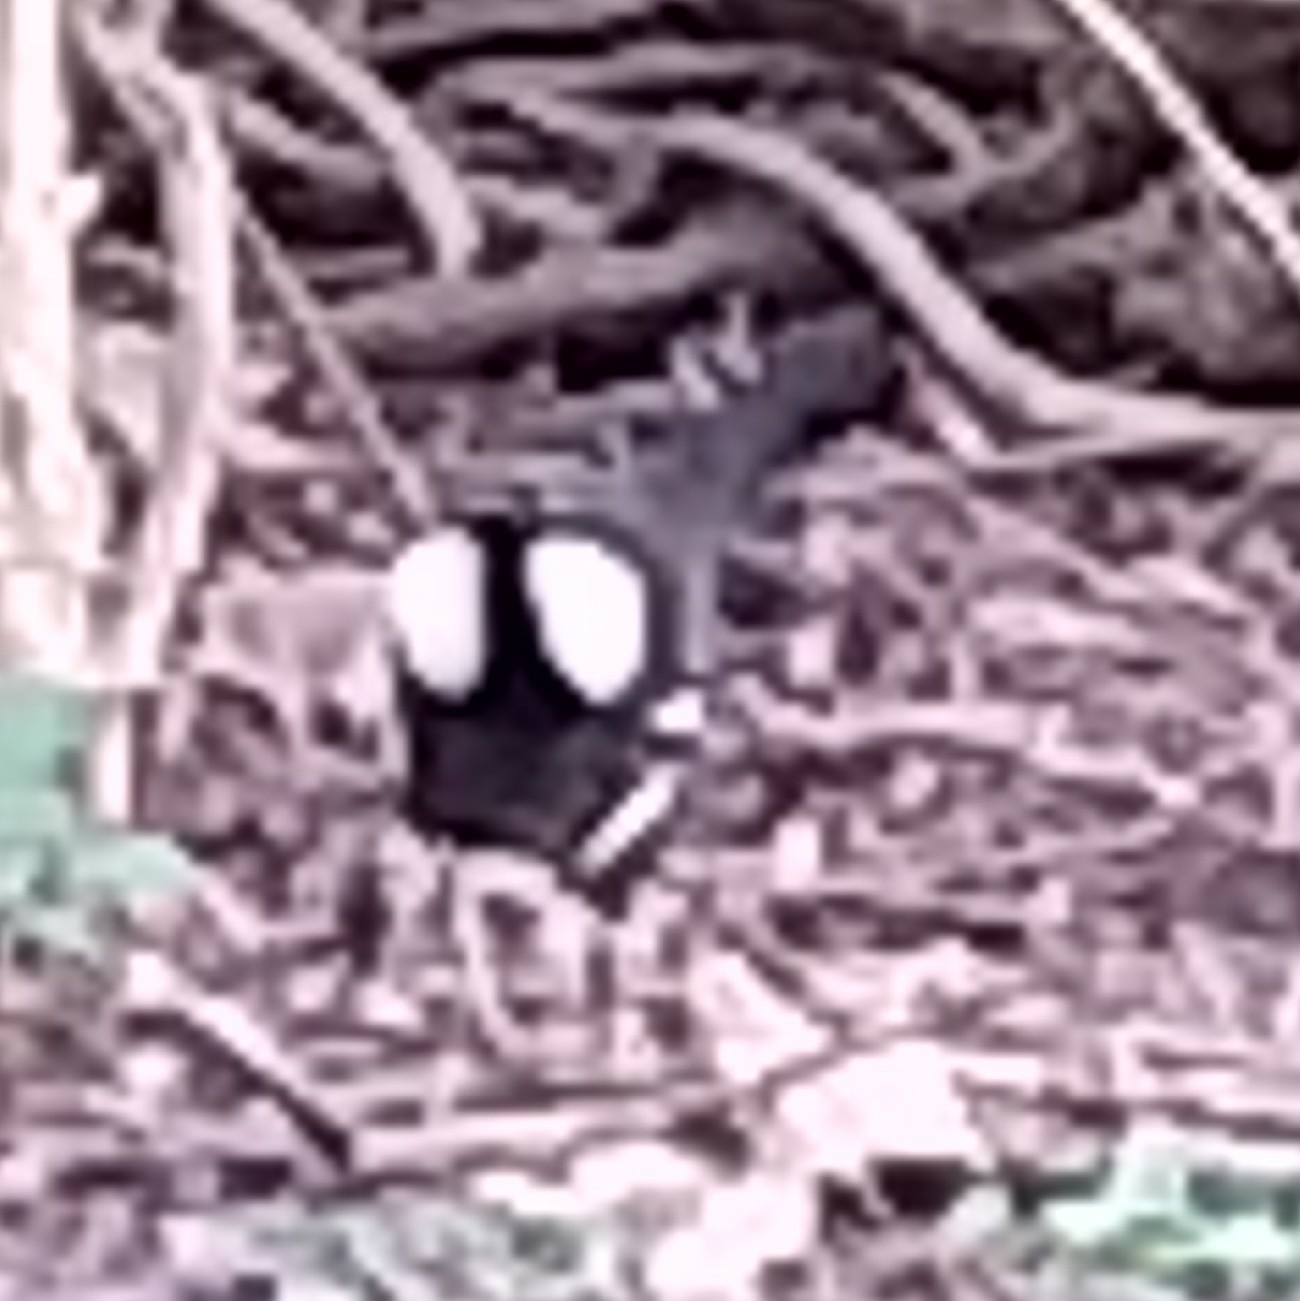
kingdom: Animalia
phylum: Chordata
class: Aves
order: Gruiformes
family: Rallidae
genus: Gallinula
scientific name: Gallinula chloropus
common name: Common moorhen
